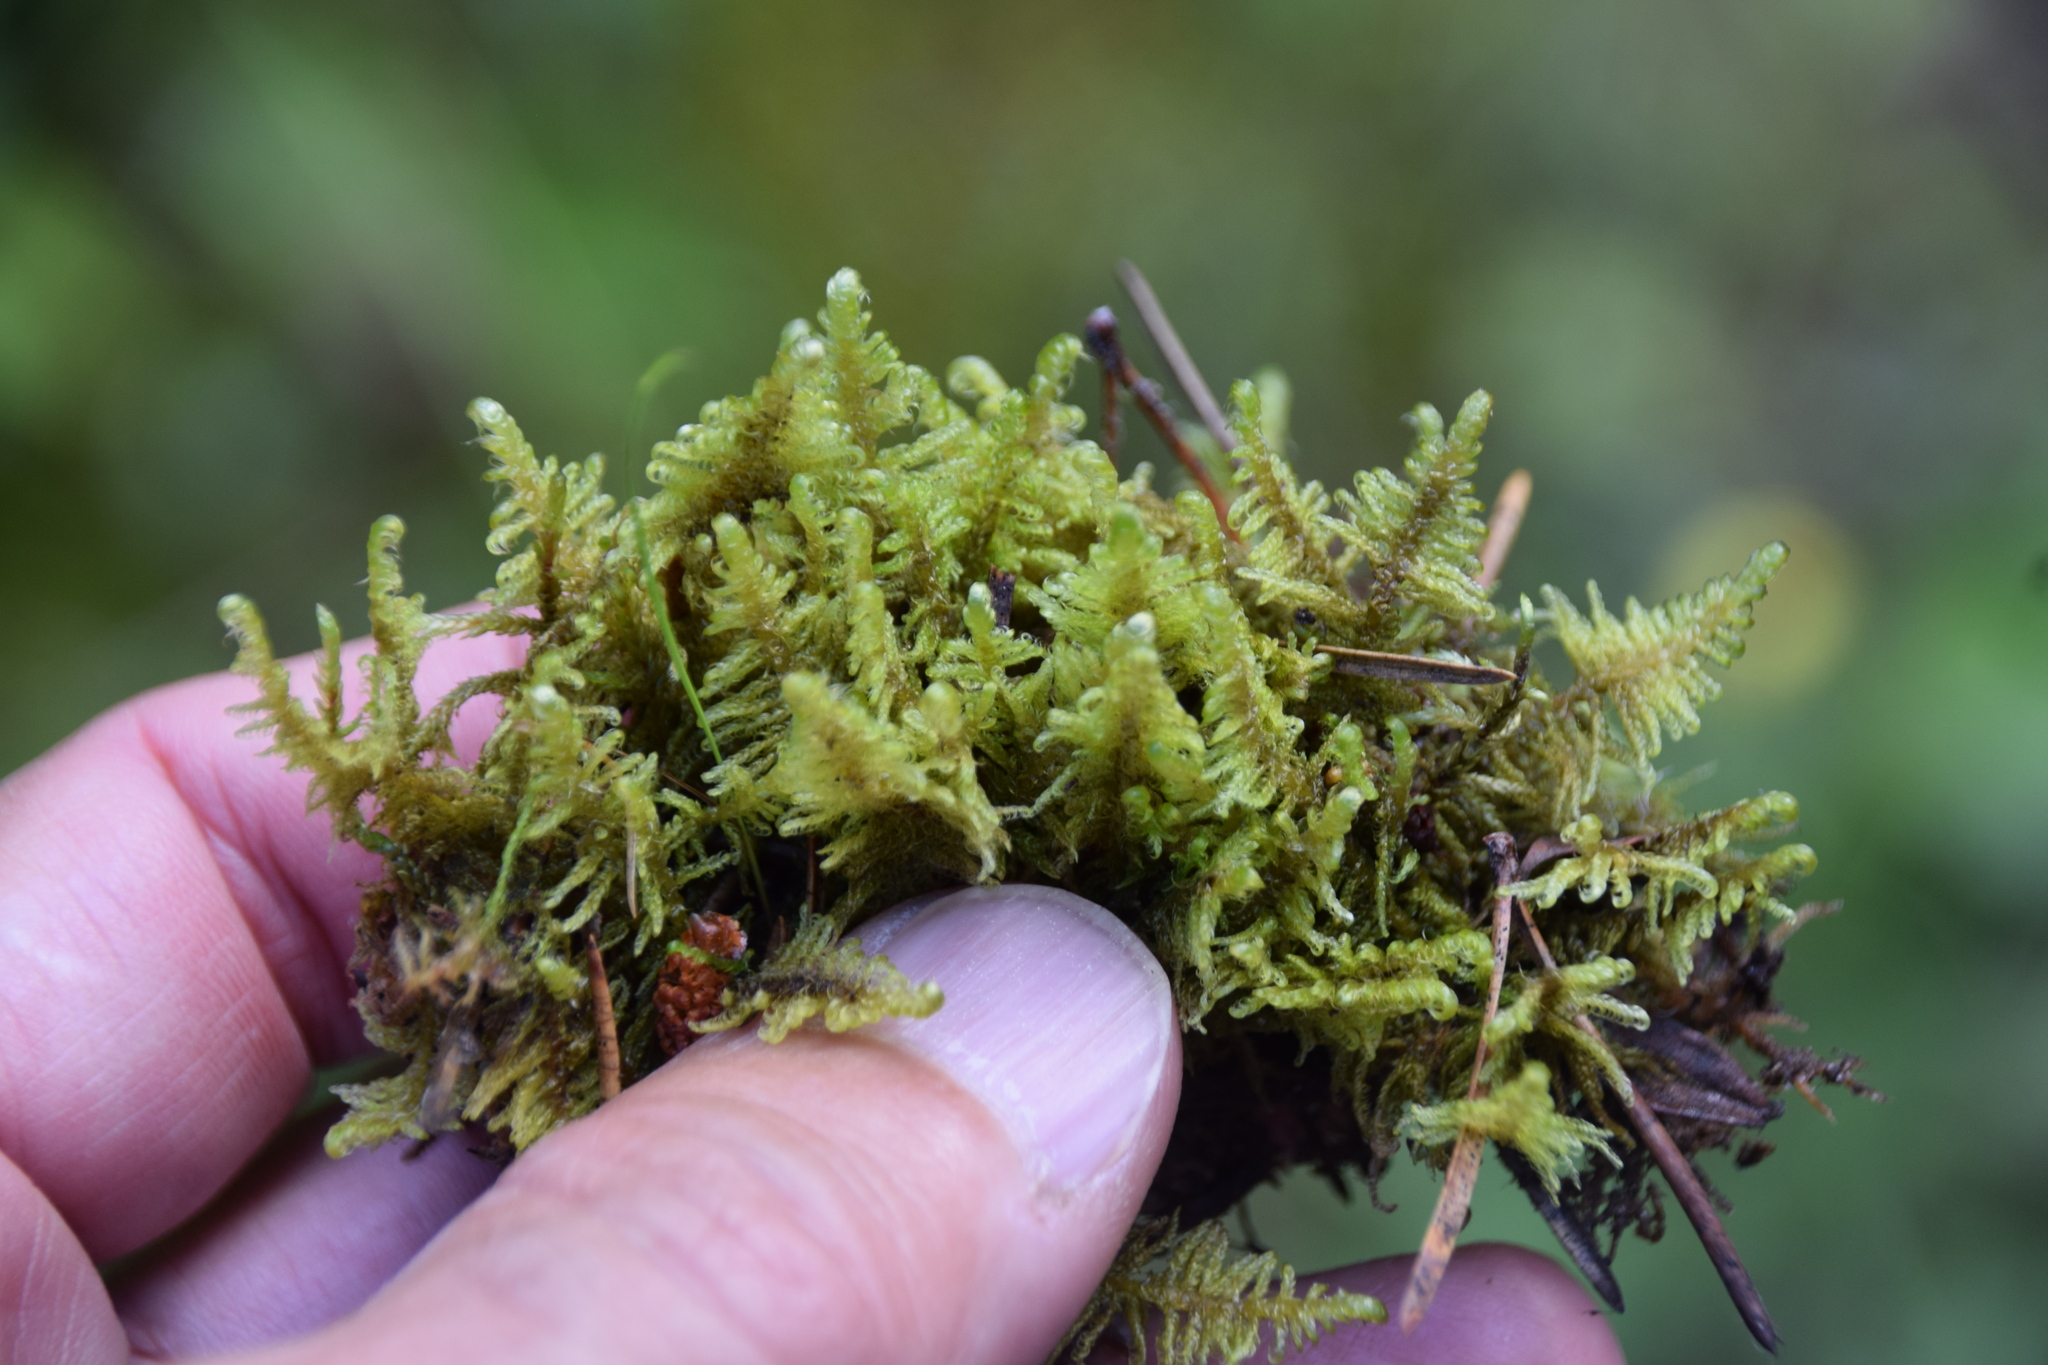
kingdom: Plantae
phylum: Bryophyta
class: Bryopsida
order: Hypnales
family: Pylaisiaceae
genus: Ptilium
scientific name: Ptilium crista-castrensis
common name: Knight's plume moss
